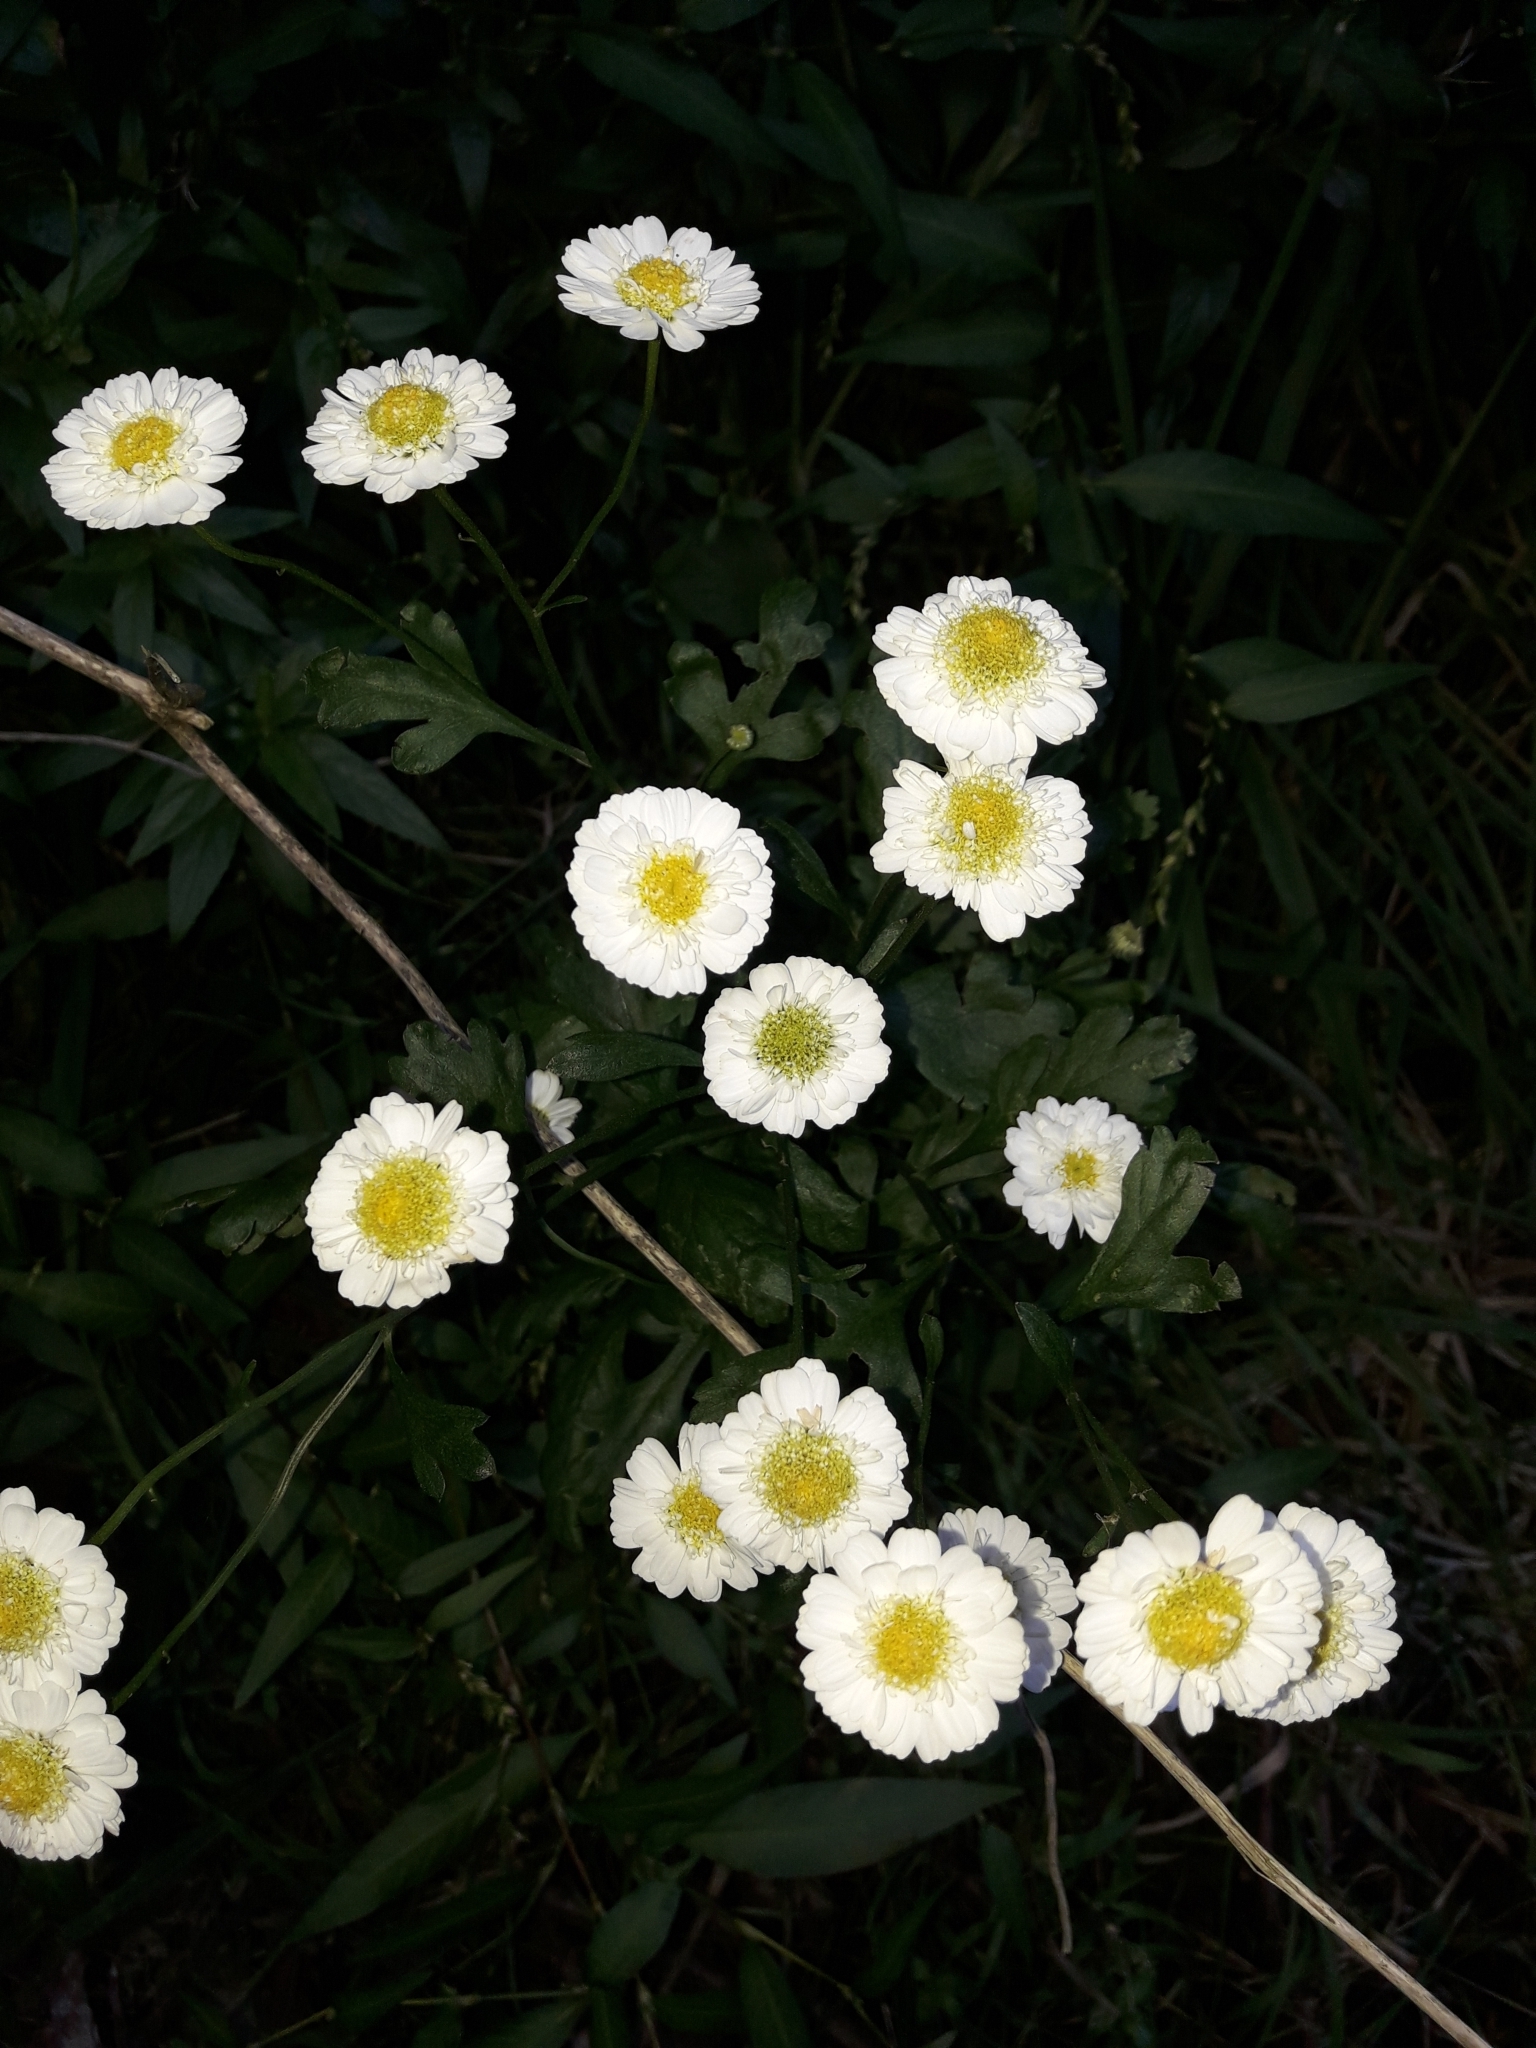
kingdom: Plantae
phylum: Tracheophyta
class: Magnoliopsida
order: Asterales
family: Asteraceae
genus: Tanacetum
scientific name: Tanacetum parthenium
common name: Feverfew
